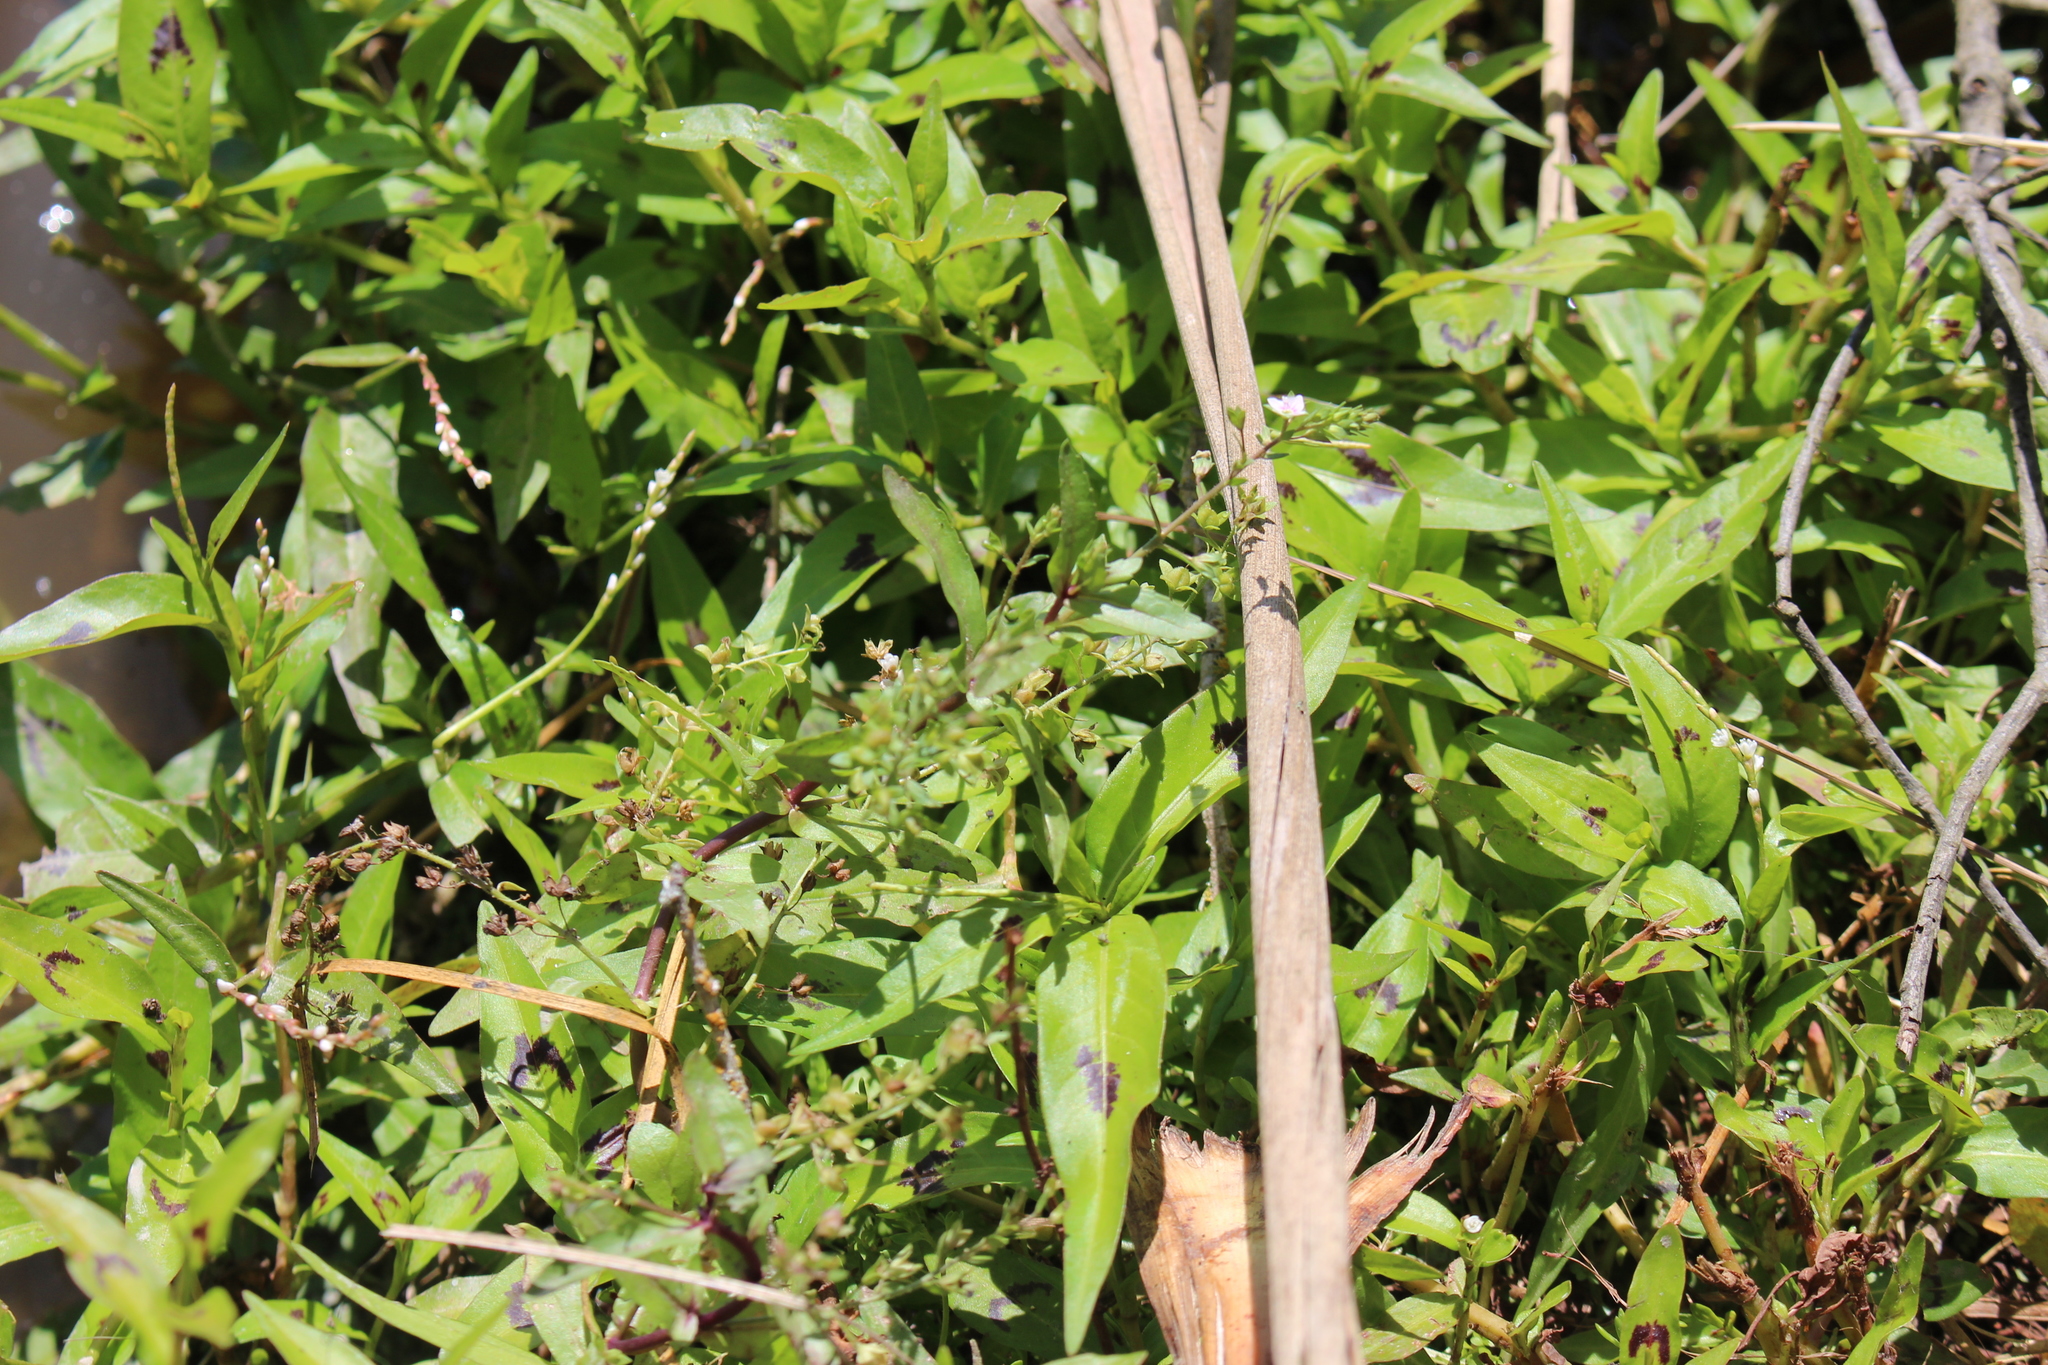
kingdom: Plantae
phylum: Tracheophyta
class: Magnoliopsida
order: Lamiales
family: Plantaginaceae
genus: Veronica
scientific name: Veronica catenata
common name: Pink water-speedwell
